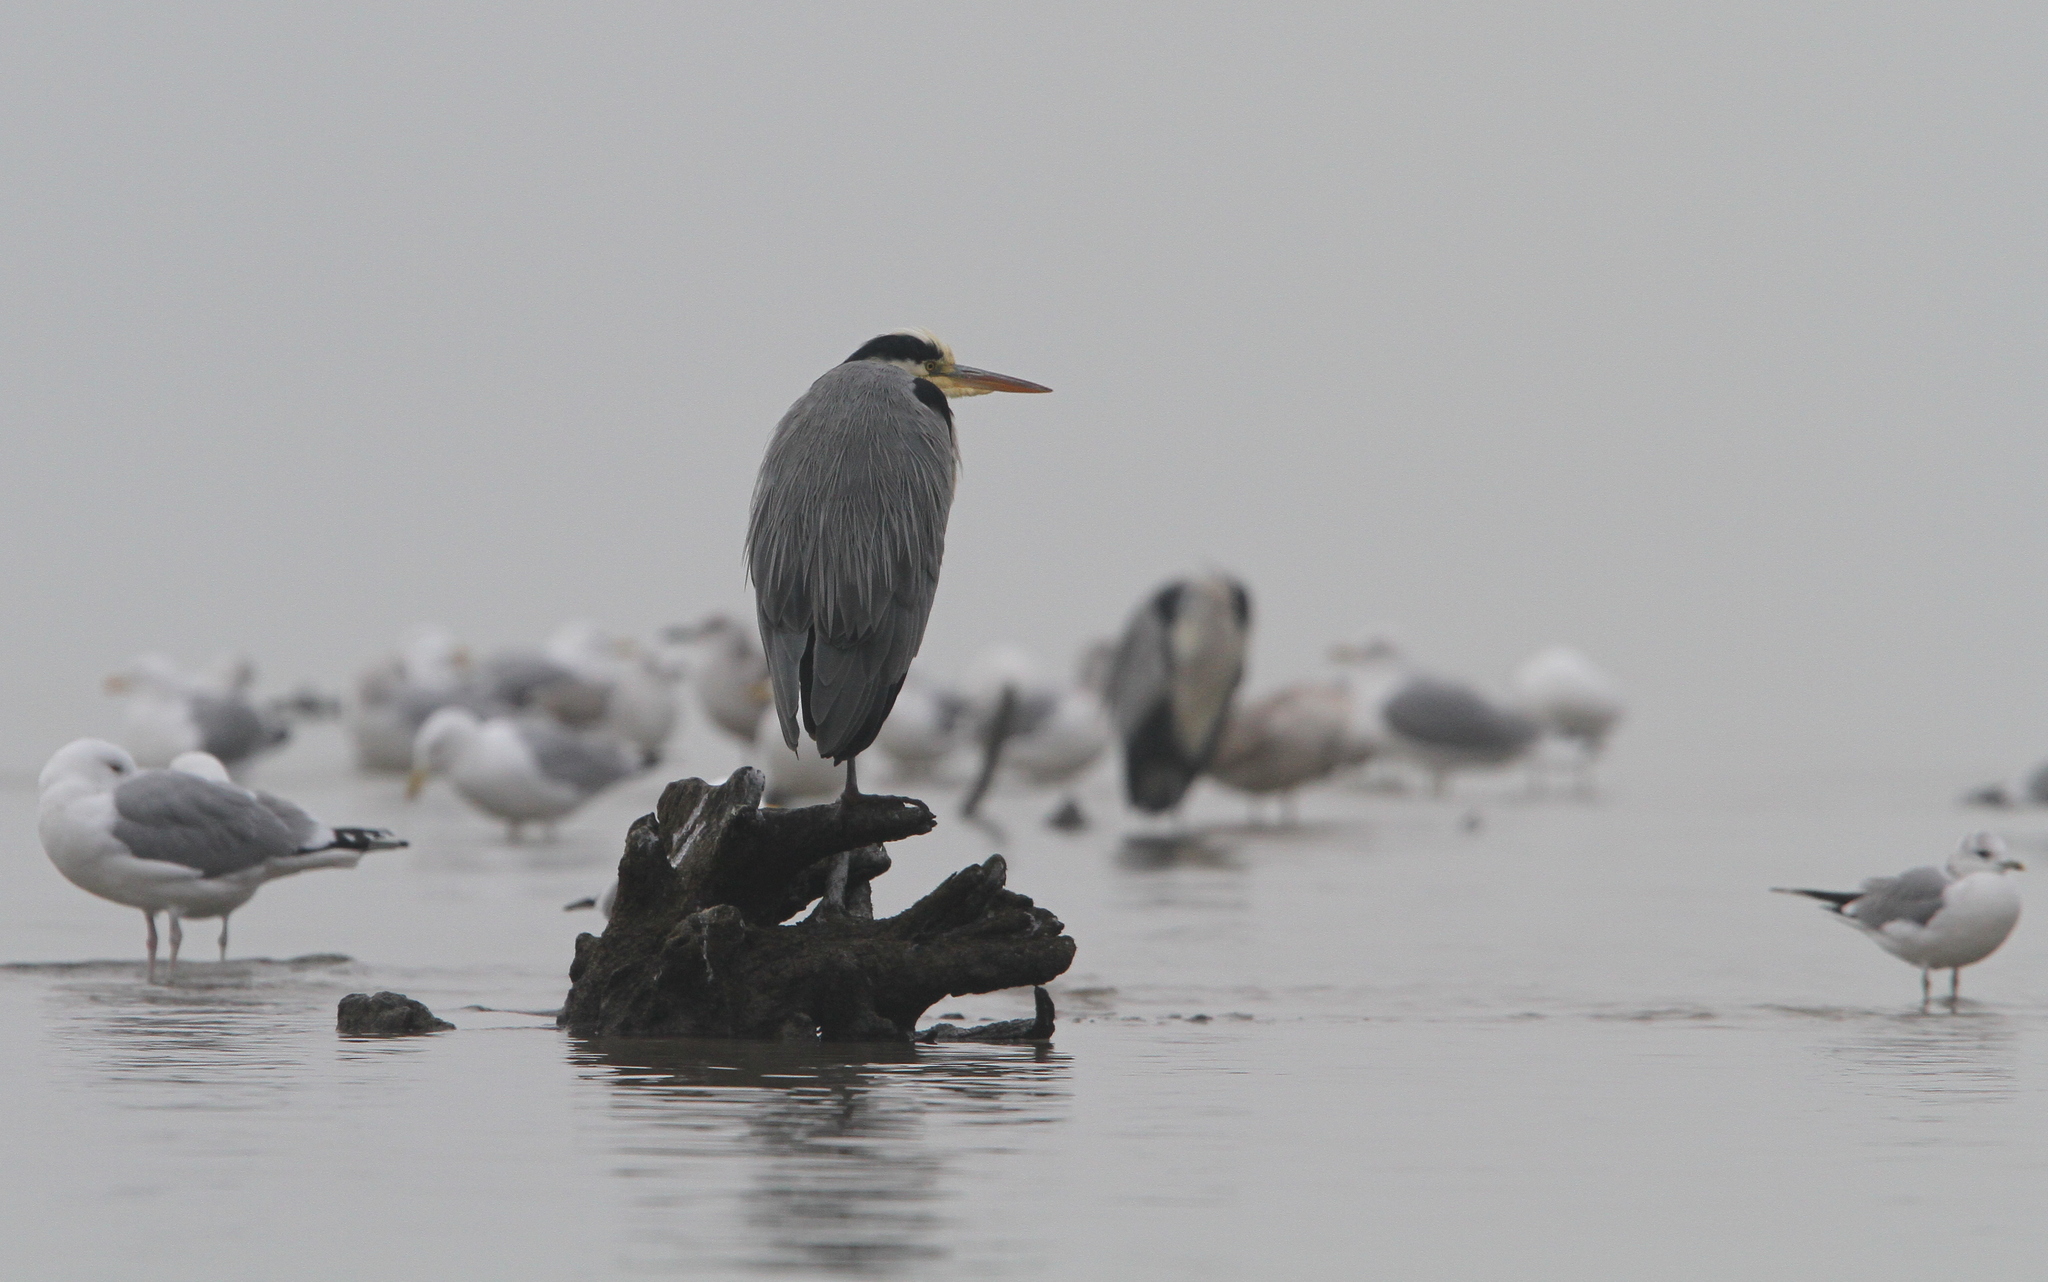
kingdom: Animalia
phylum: Chordata
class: Aves
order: Pelecaniformes
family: Ardeidae
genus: Ardea
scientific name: Ardea cinerea
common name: Grey heron
